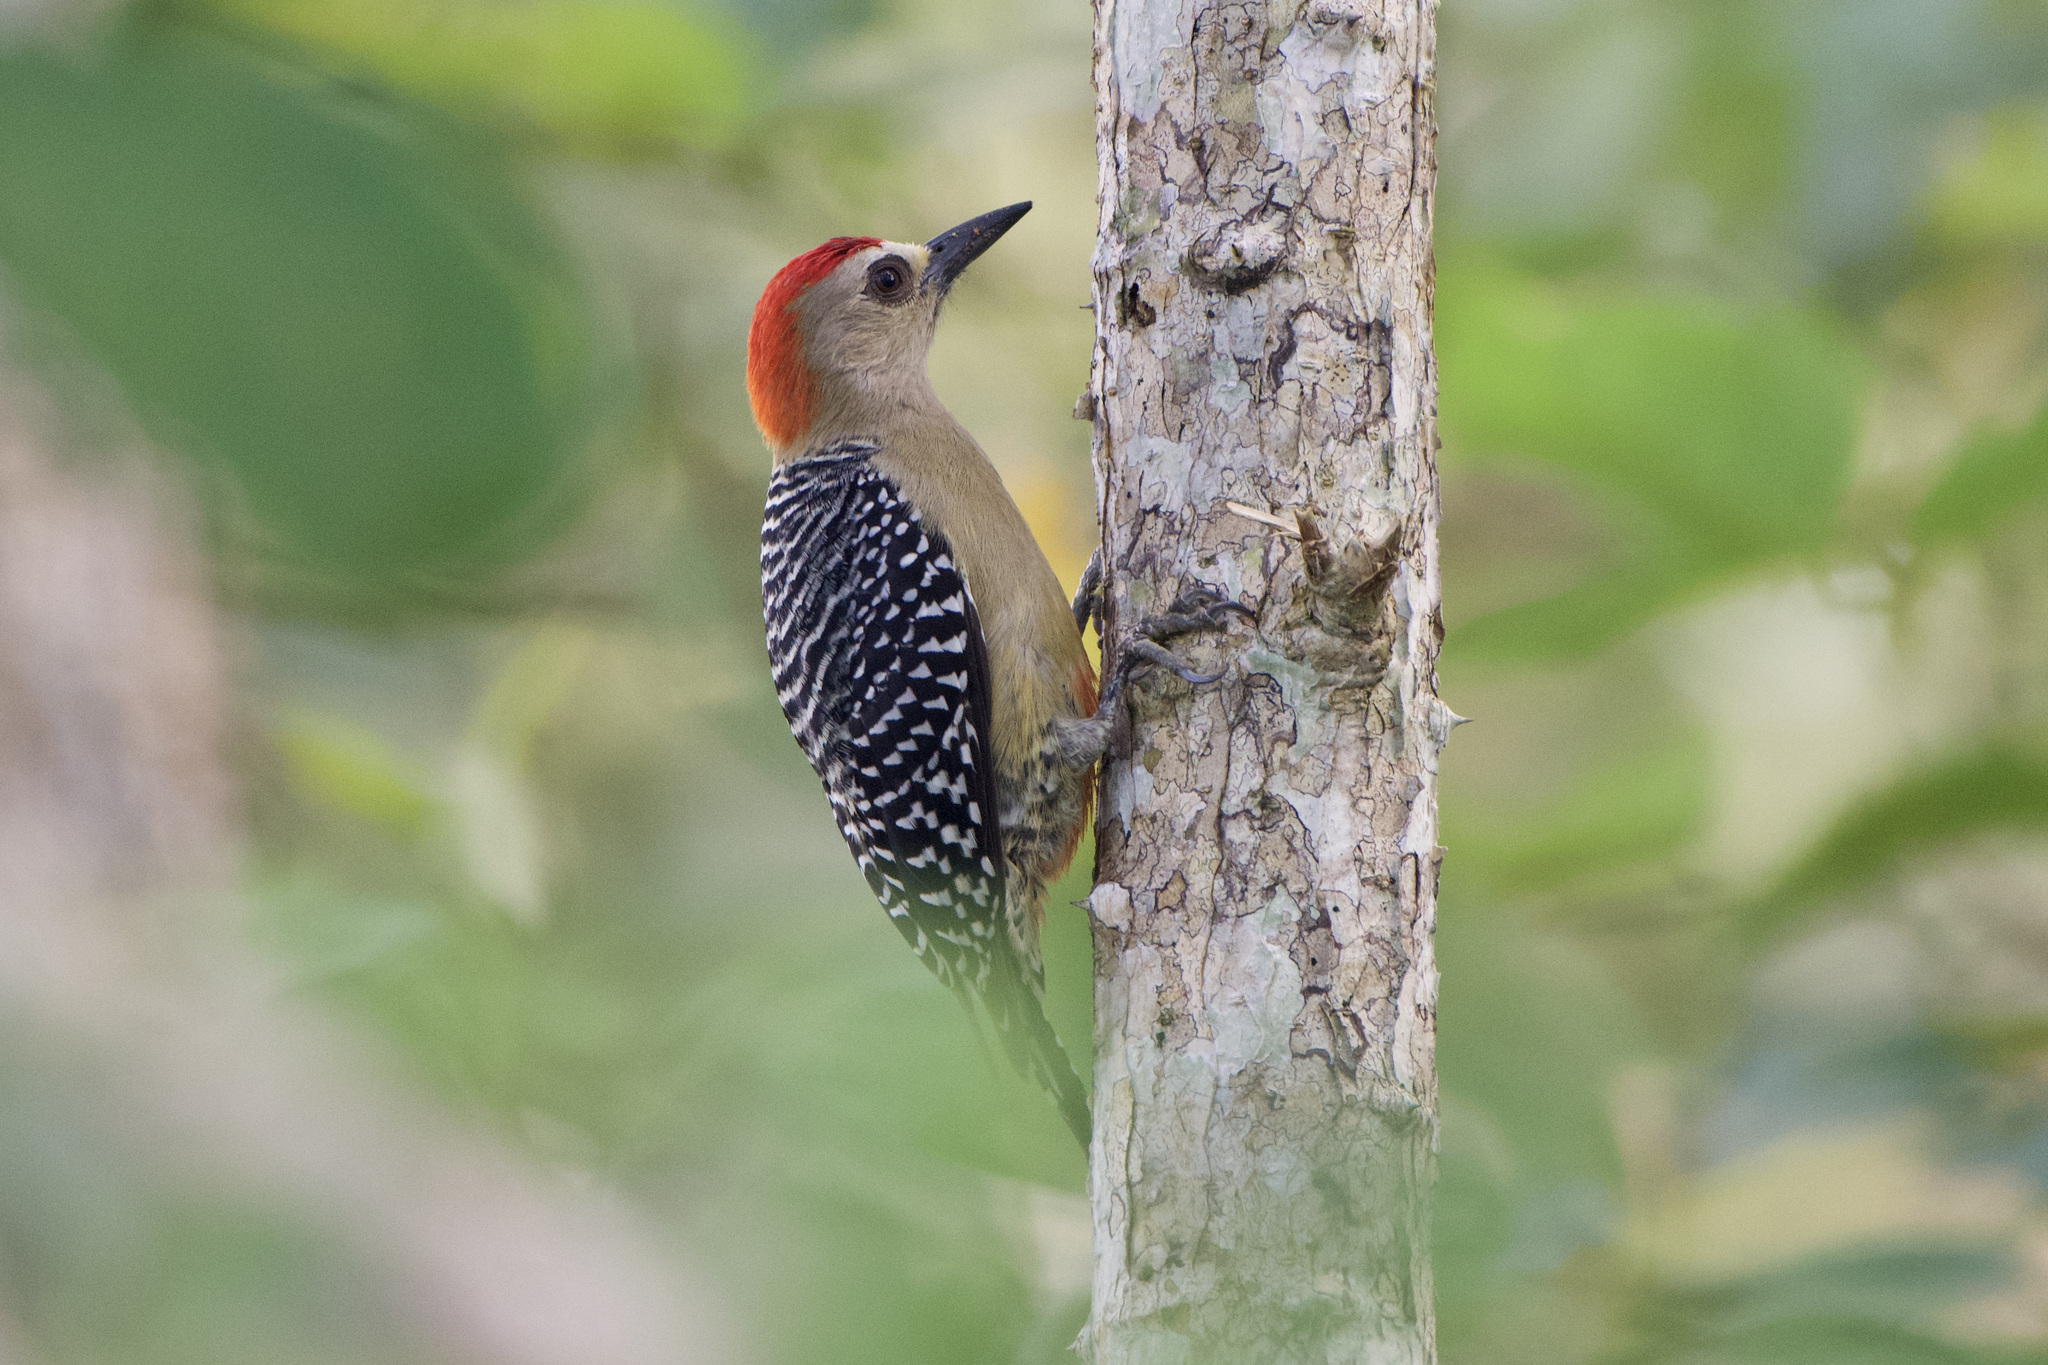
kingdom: Animalia
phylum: Chordata
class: Aves
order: Piciformes
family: Picidae
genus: Melanerpes
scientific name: Melanerpes rubricapillus
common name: Red-crowned woodpecker
